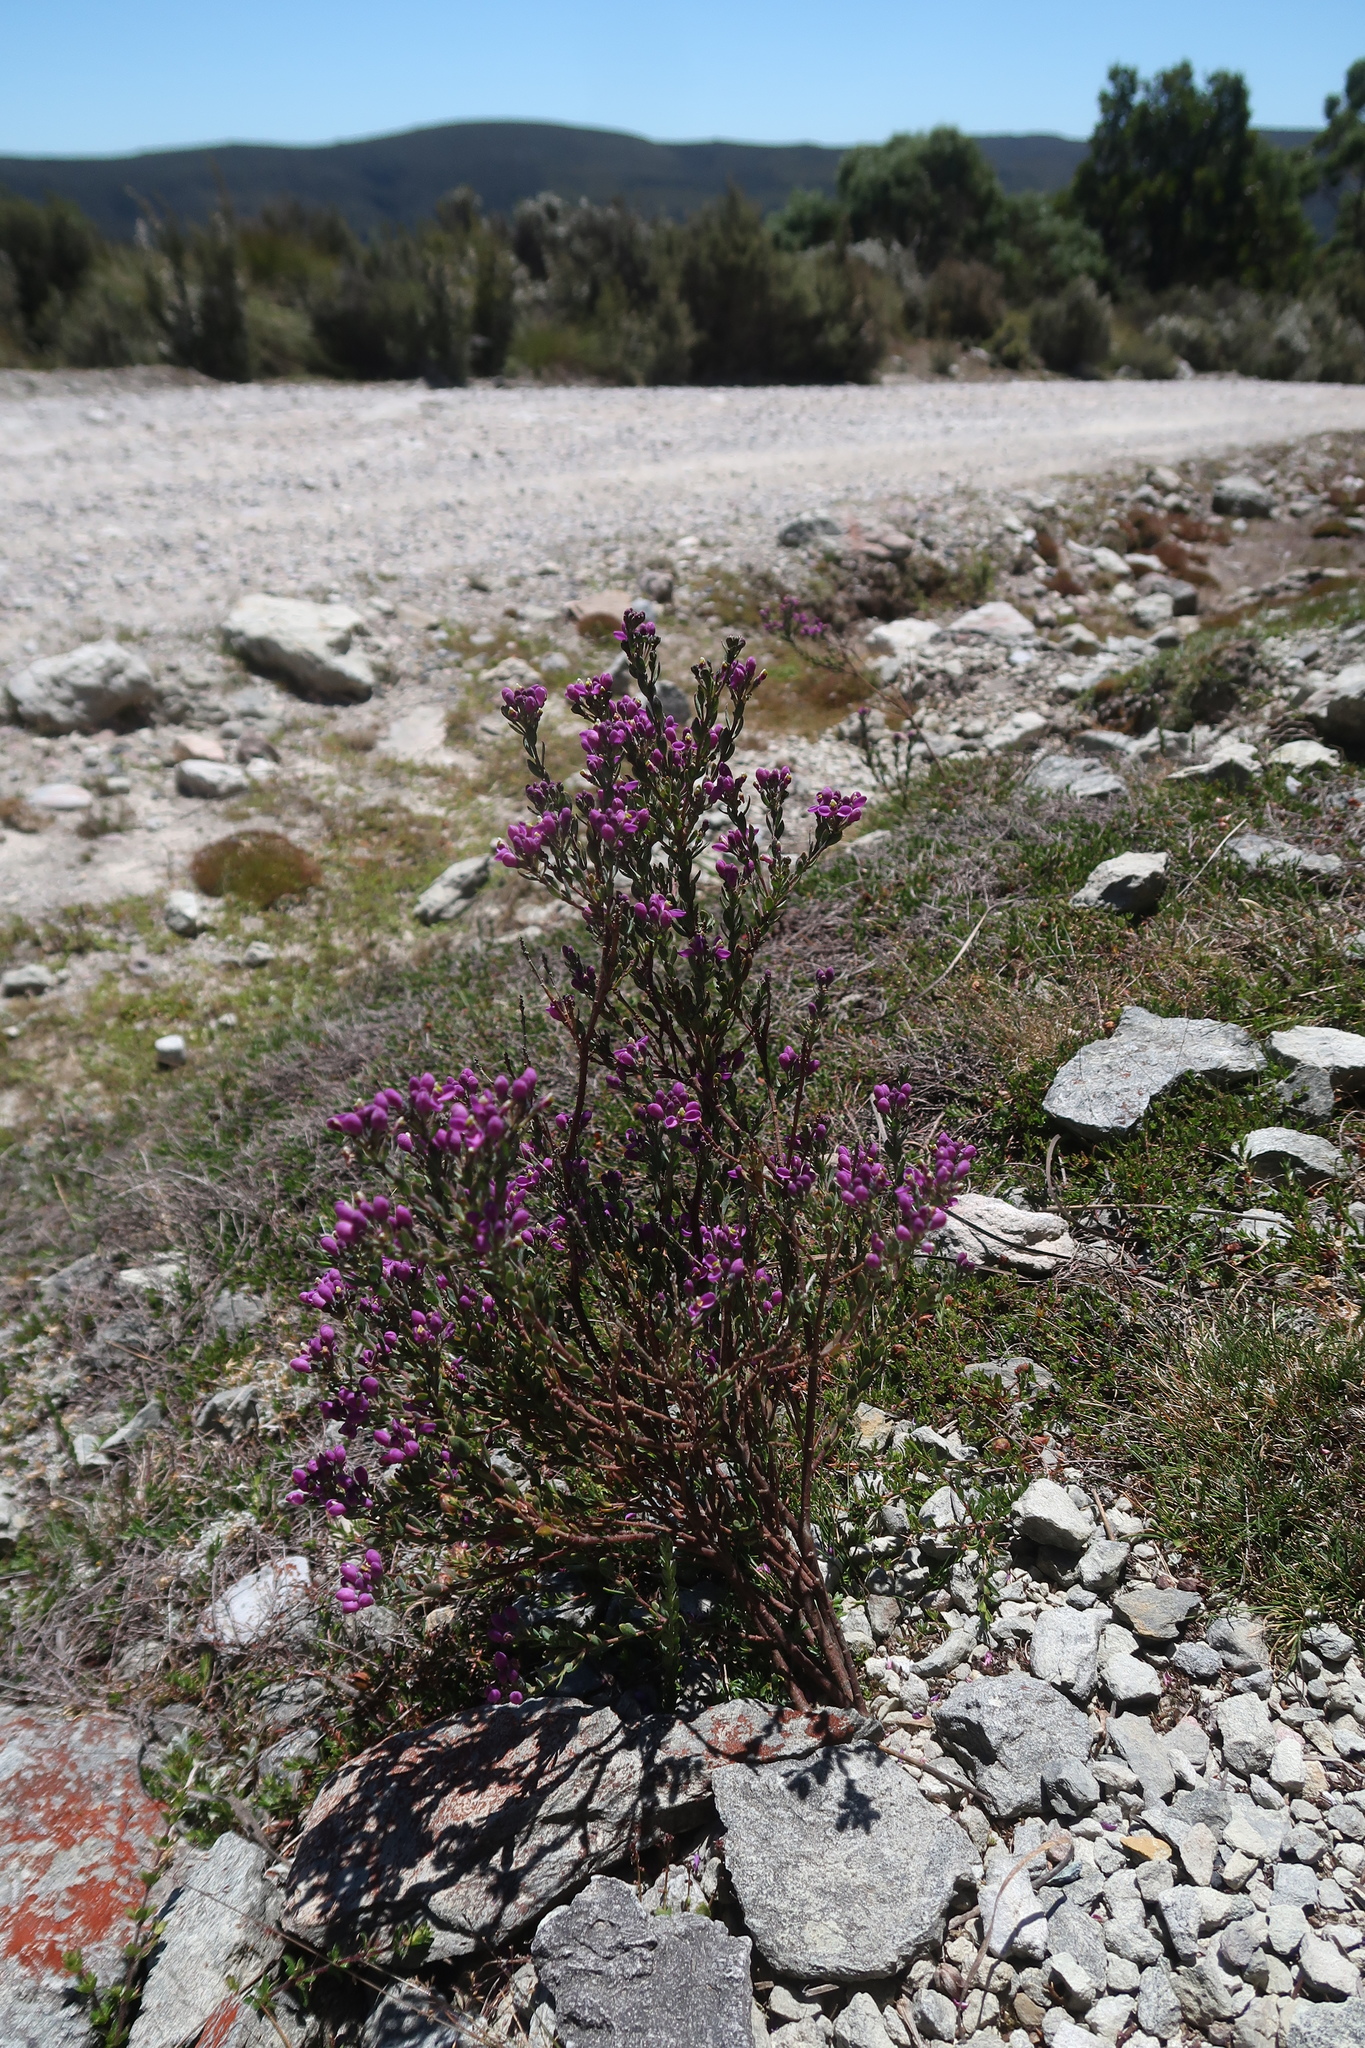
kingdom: Plantae
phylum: Tracheophyta
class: Magnoliopsida
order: Fabales
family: Polygalaceae
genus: Comesperma
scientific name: Comesperma retusum
